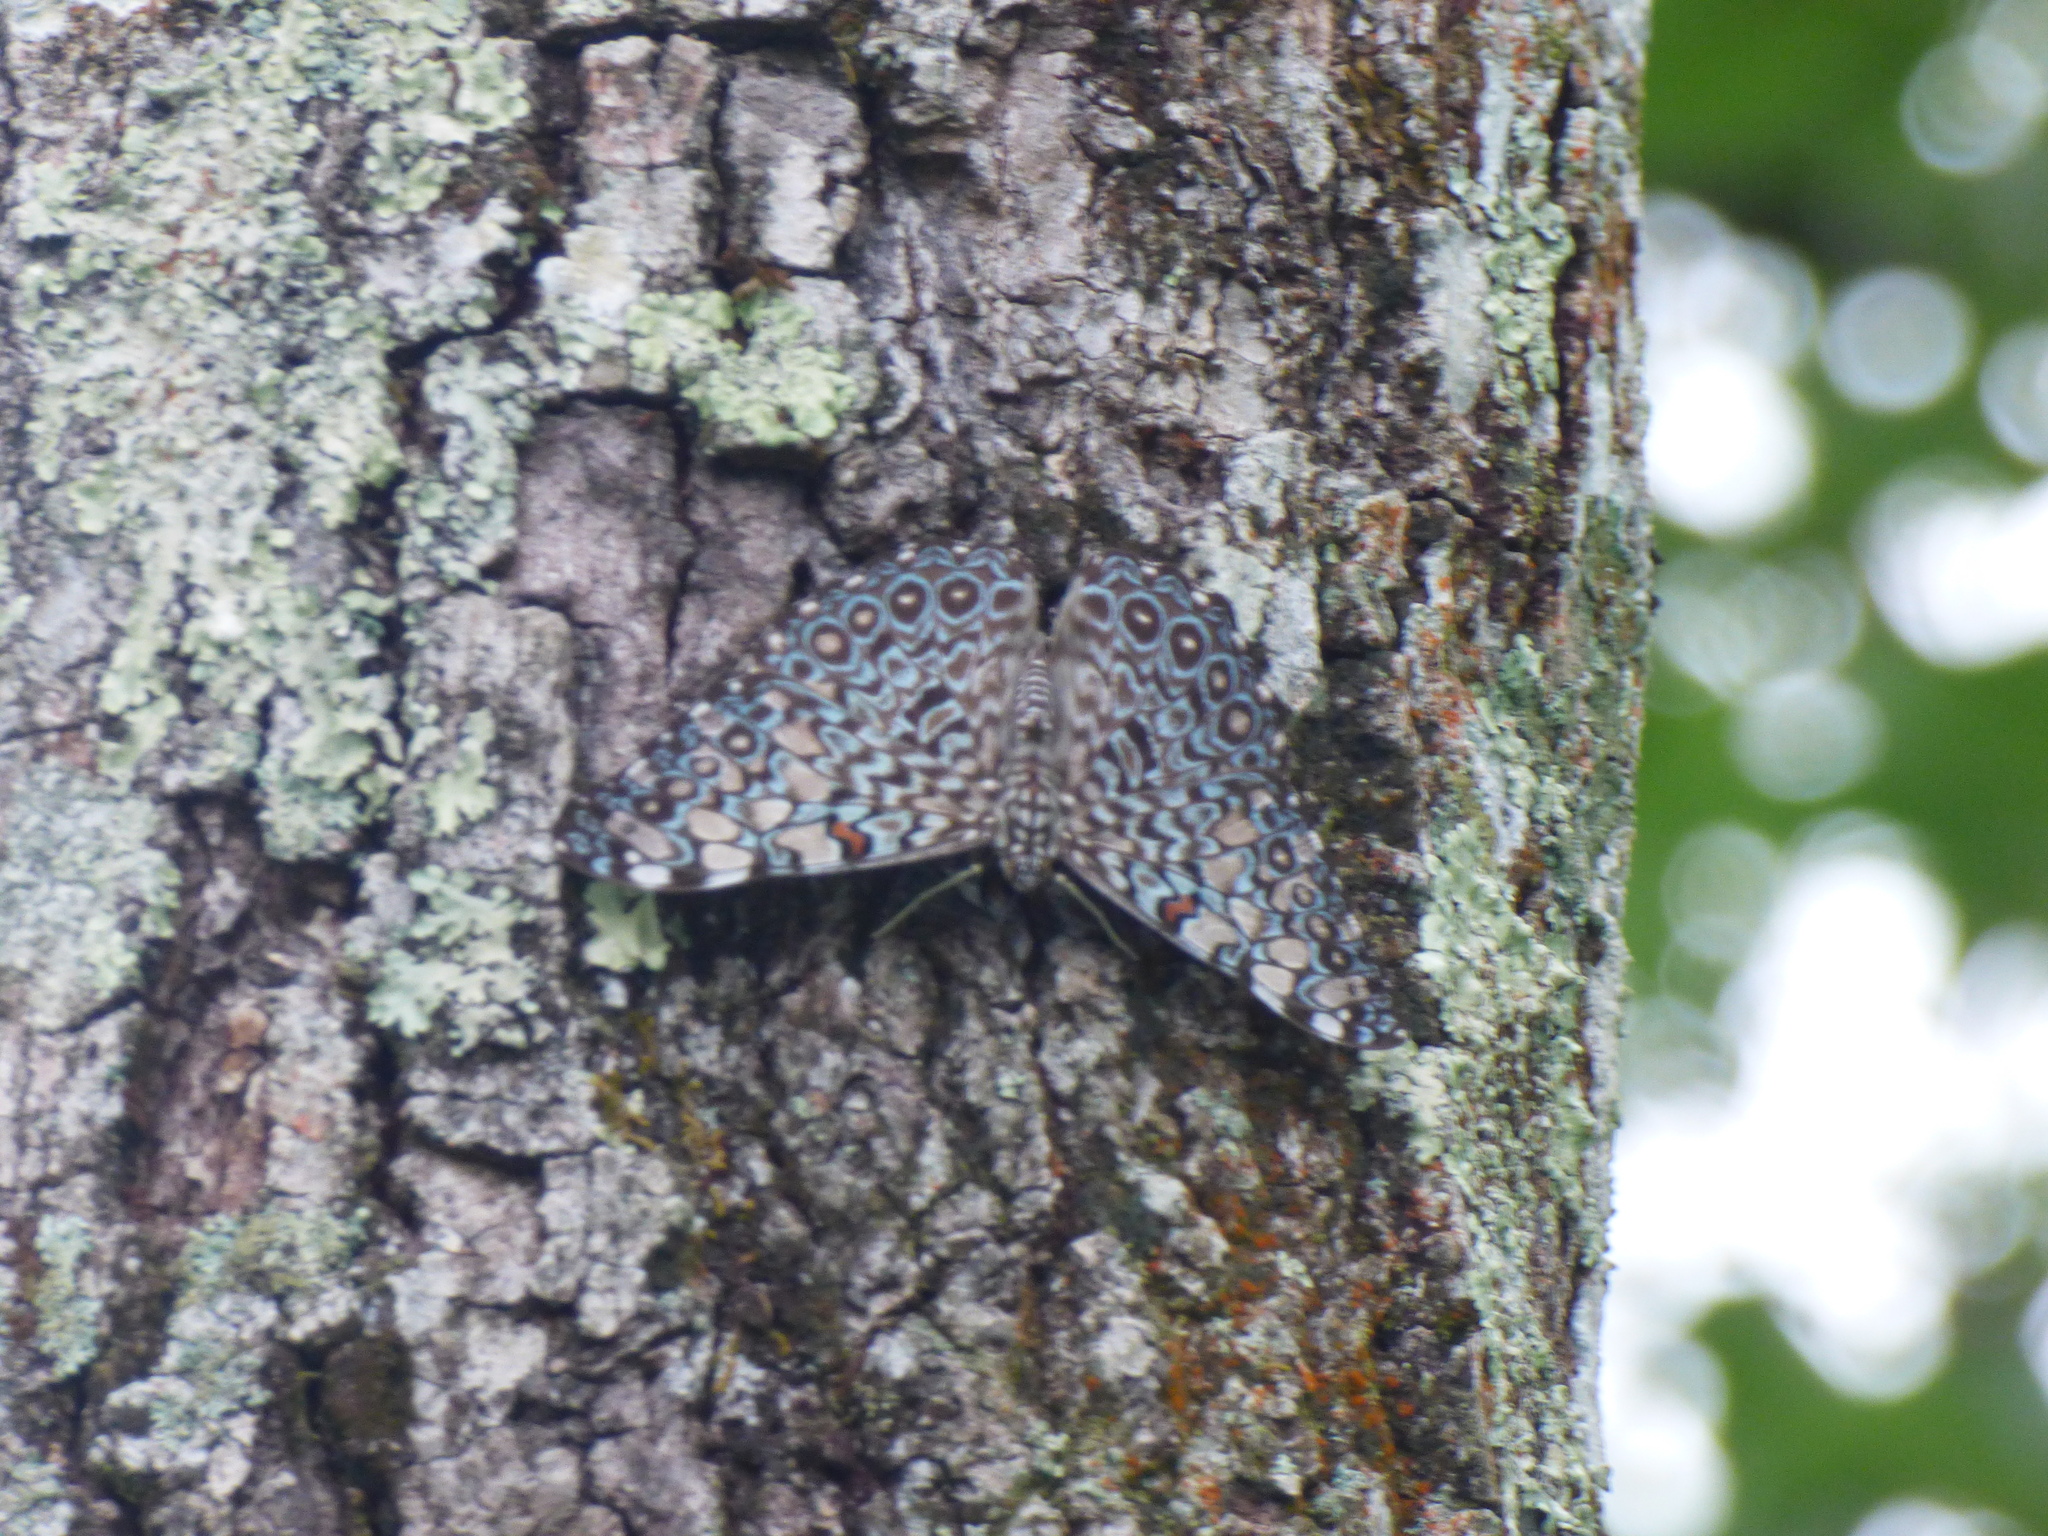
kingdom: Animalia
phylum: Arthropoda
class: Insecta
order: Lepidoptera
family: Nymphalidae
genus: Hamadryas
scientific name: Hamadryas feronia
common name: Variable cracker
